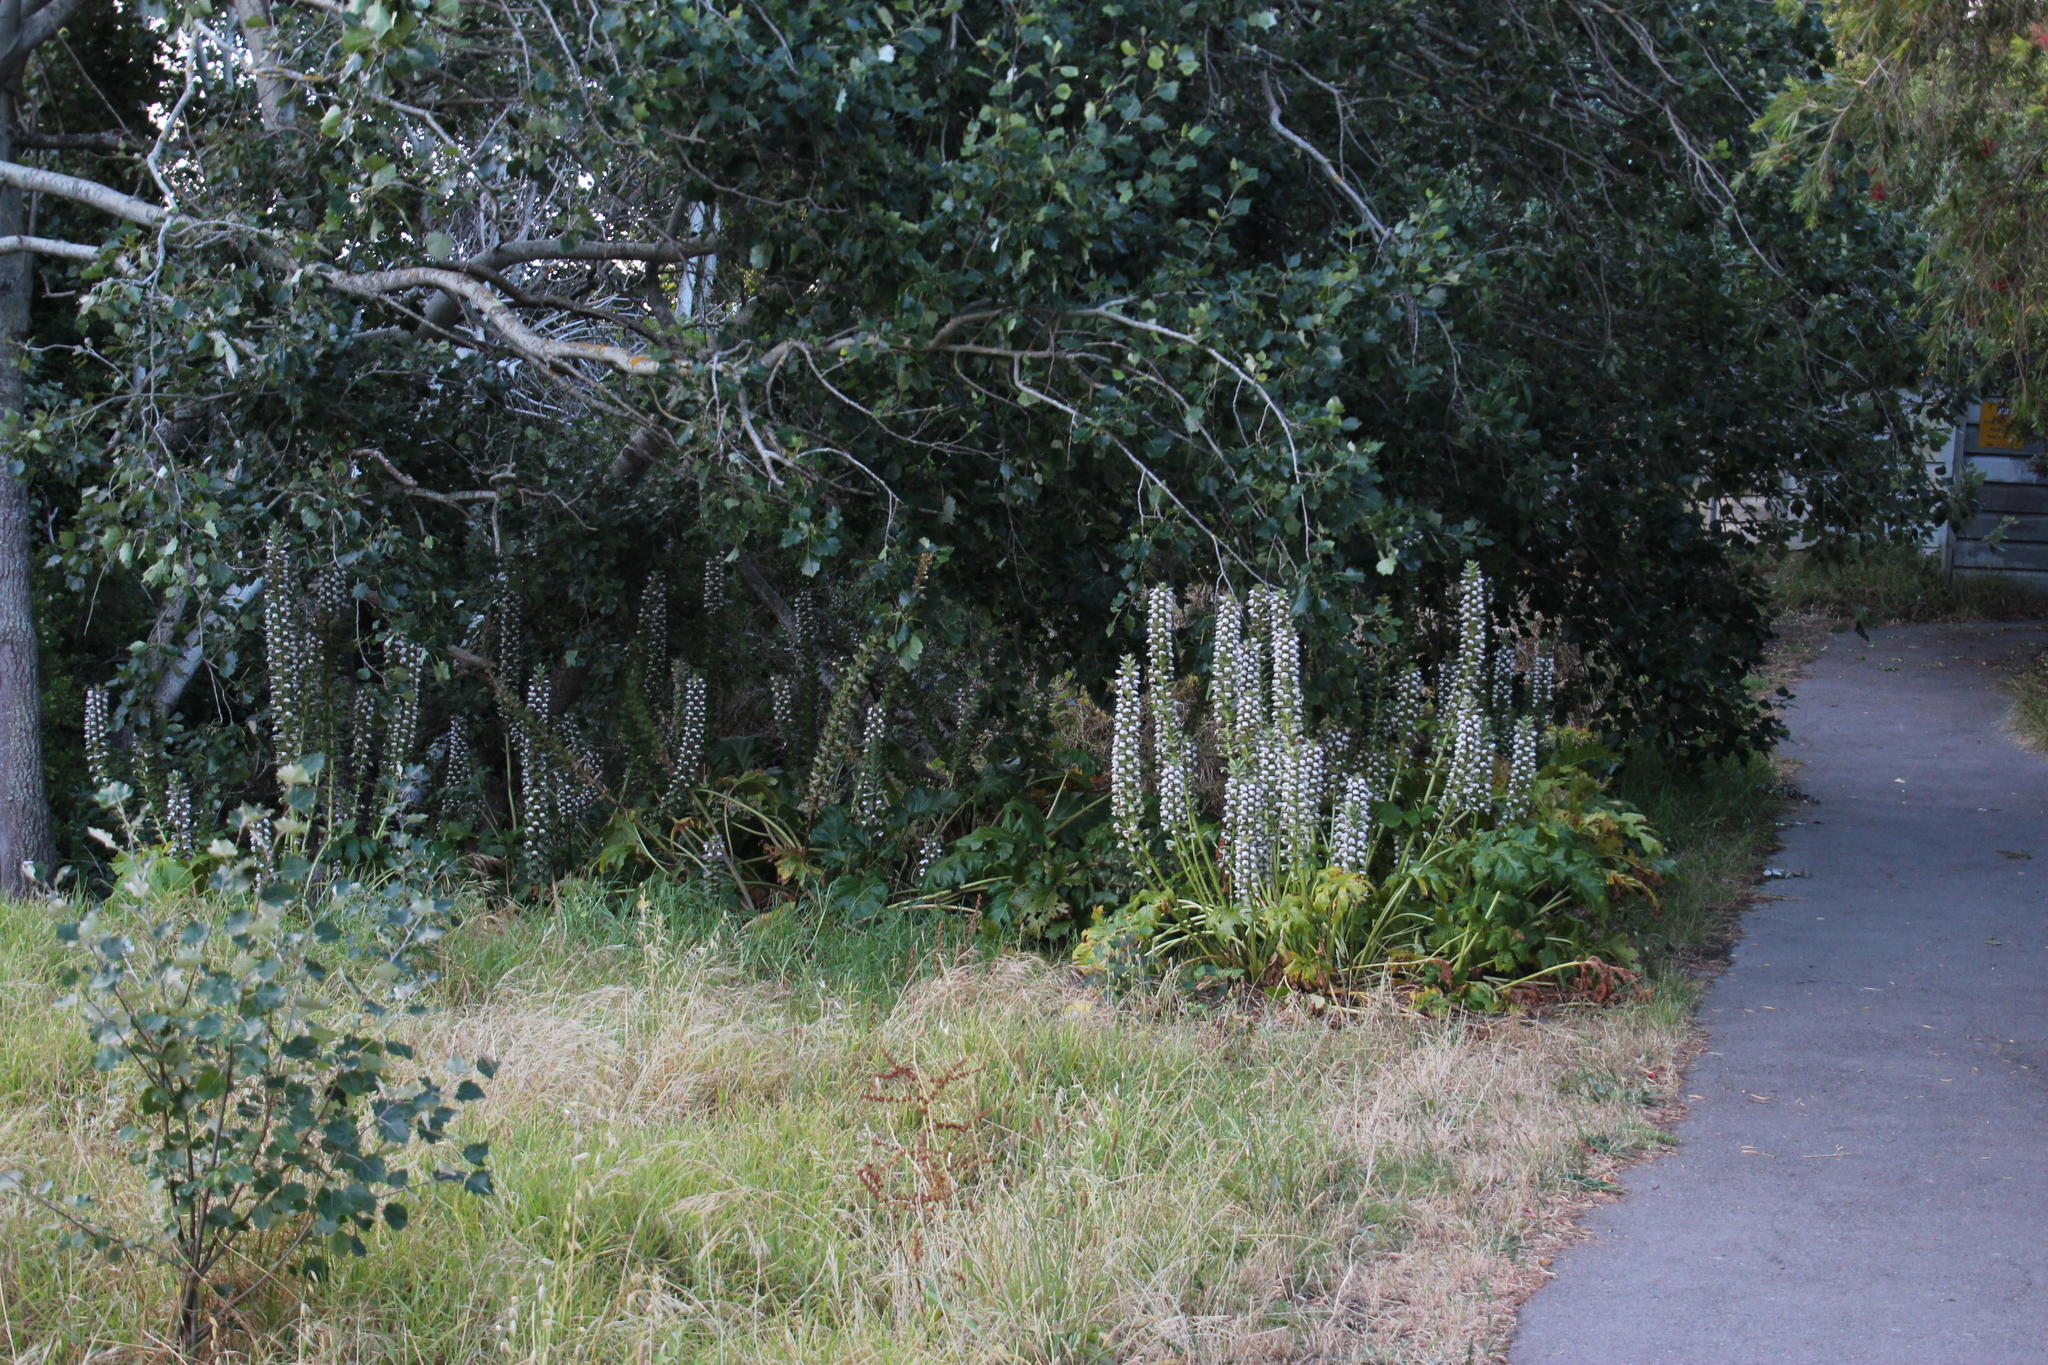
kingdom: Plantae
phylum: Tracheophyta
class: Magnoliopsida
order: Lamiales
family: Acanthaceae
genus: Acanthus
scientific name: Acanthus mollis
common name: Bear's-breech
